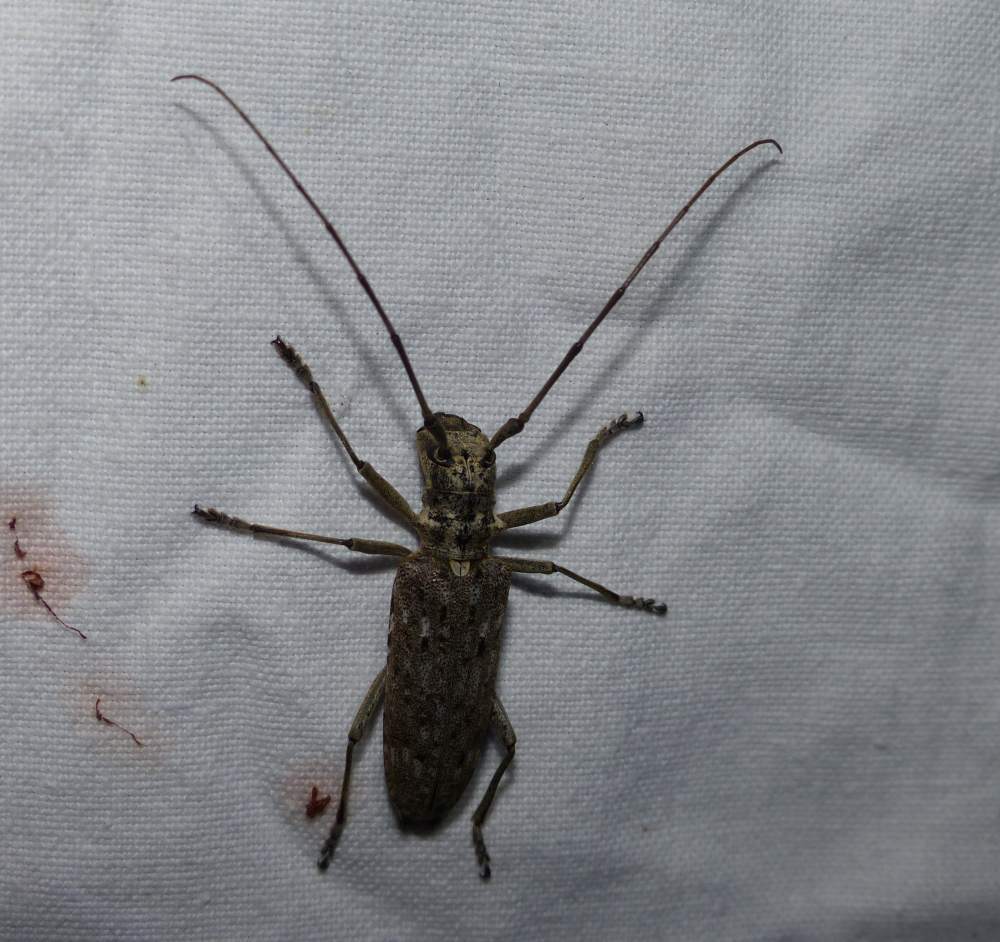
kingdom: Animalia
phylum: Arthropoda
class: Insecta
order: Coleoptera
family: Cerambycidae
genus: Monochamus
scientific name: Monochamus notatus
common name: Northeastern pine sawyer beetle
